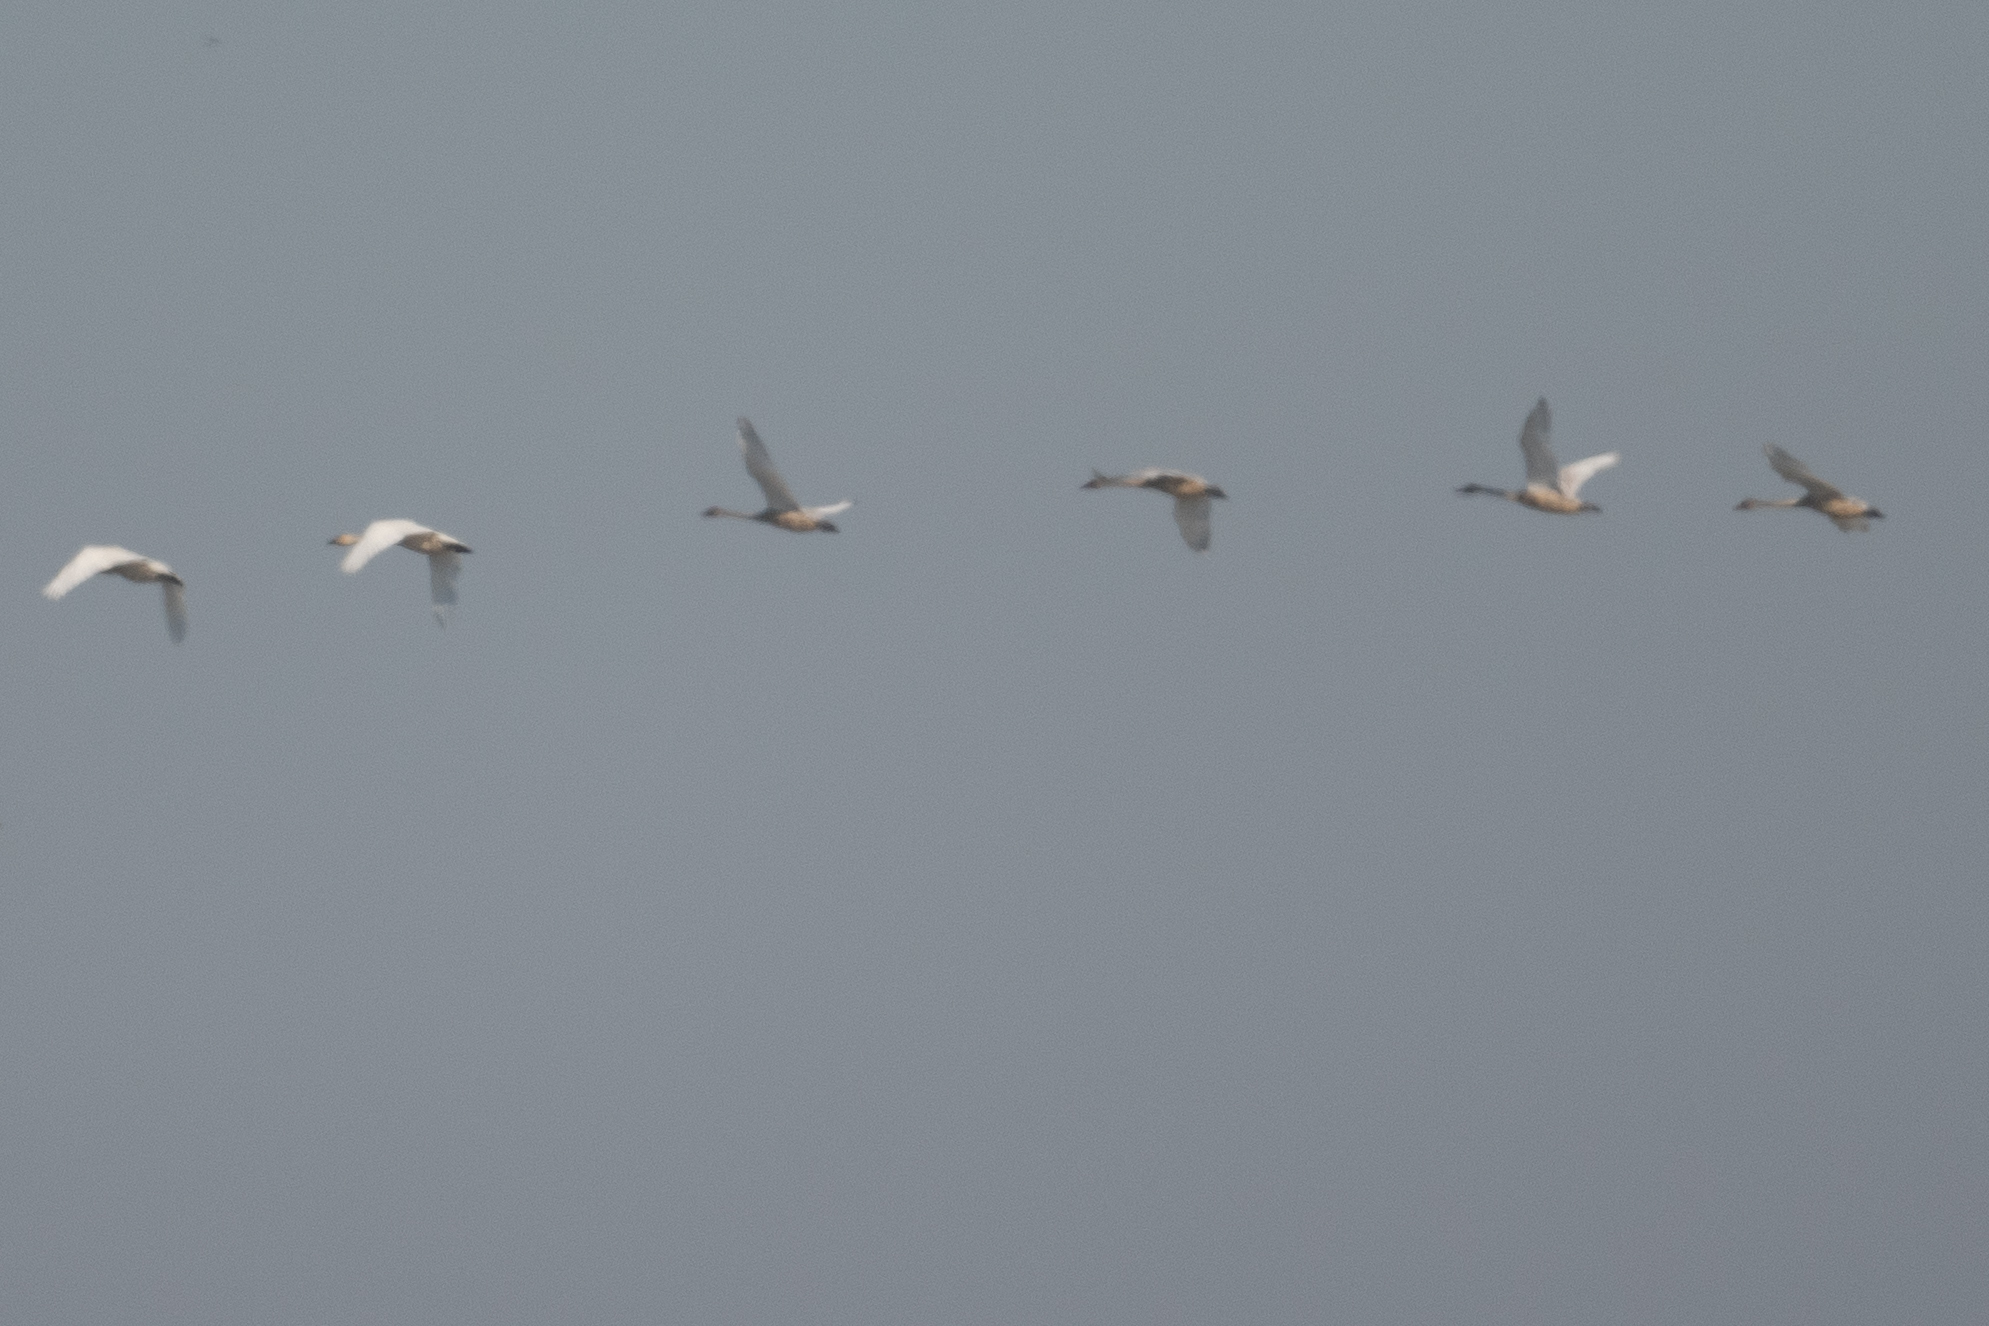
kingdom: Animalia
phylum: Chordata
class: Aves
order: Anseriformes
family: Anatidae
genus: Cygnus
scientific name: Cygnus columbianus
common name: Tundra swan
